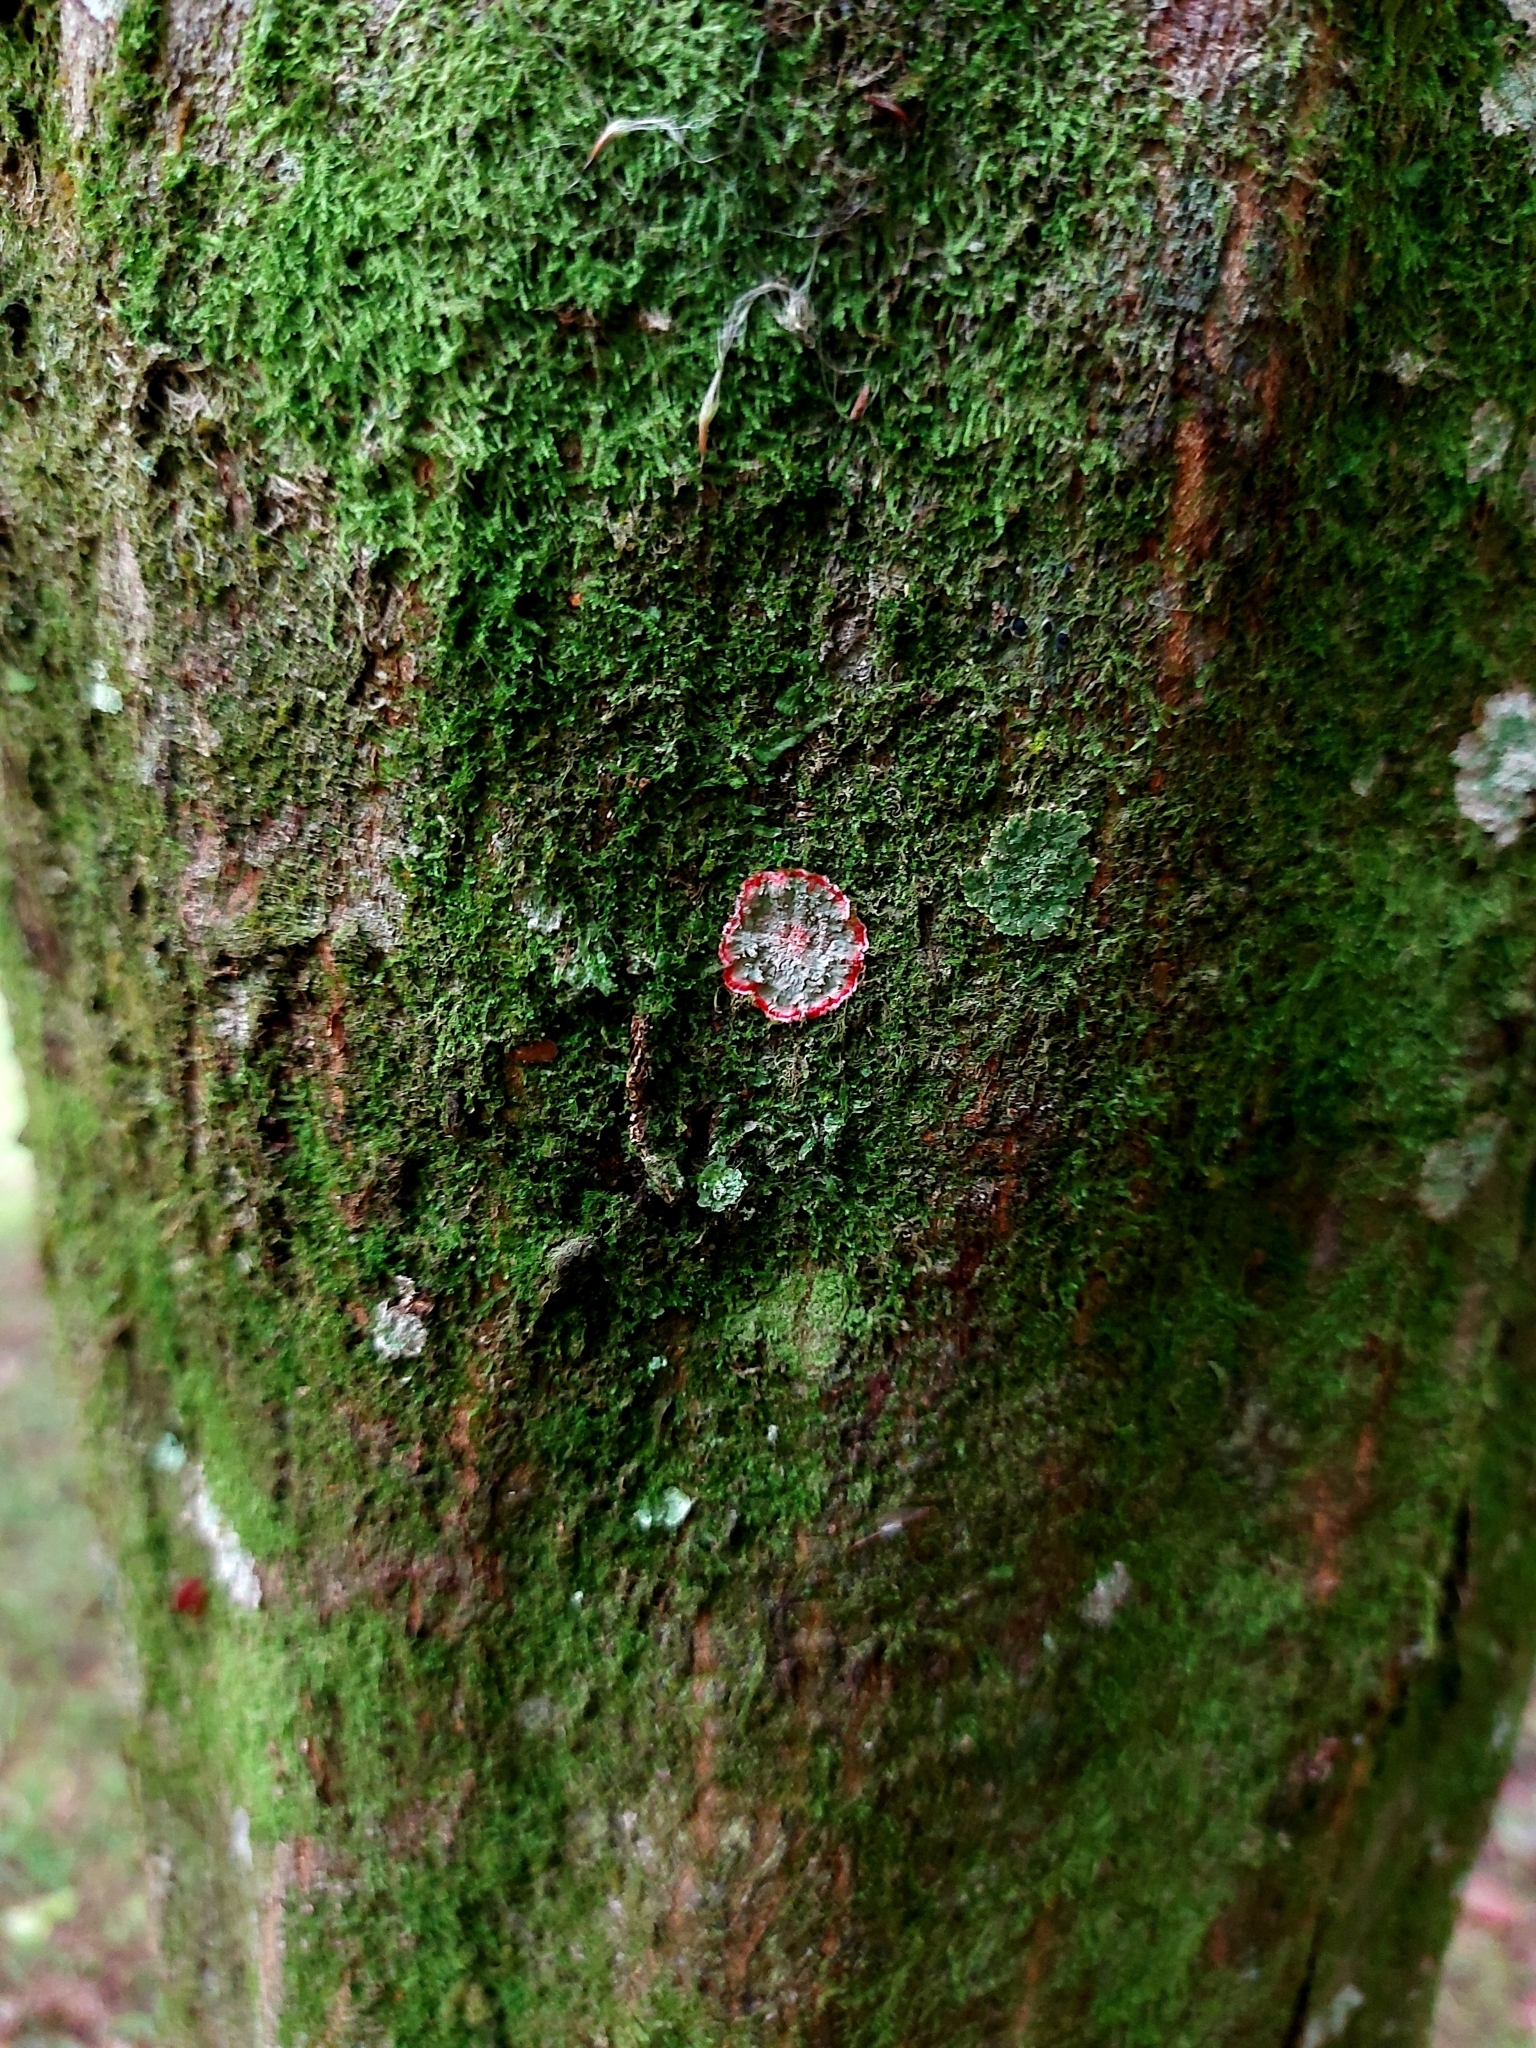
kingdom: Fungi
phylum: Ascomycota
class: Arthoniomycetes
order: Arthoniales
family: Arthoniaceae
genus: Herpothallon
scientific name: Herpothallon rubrocinctum
